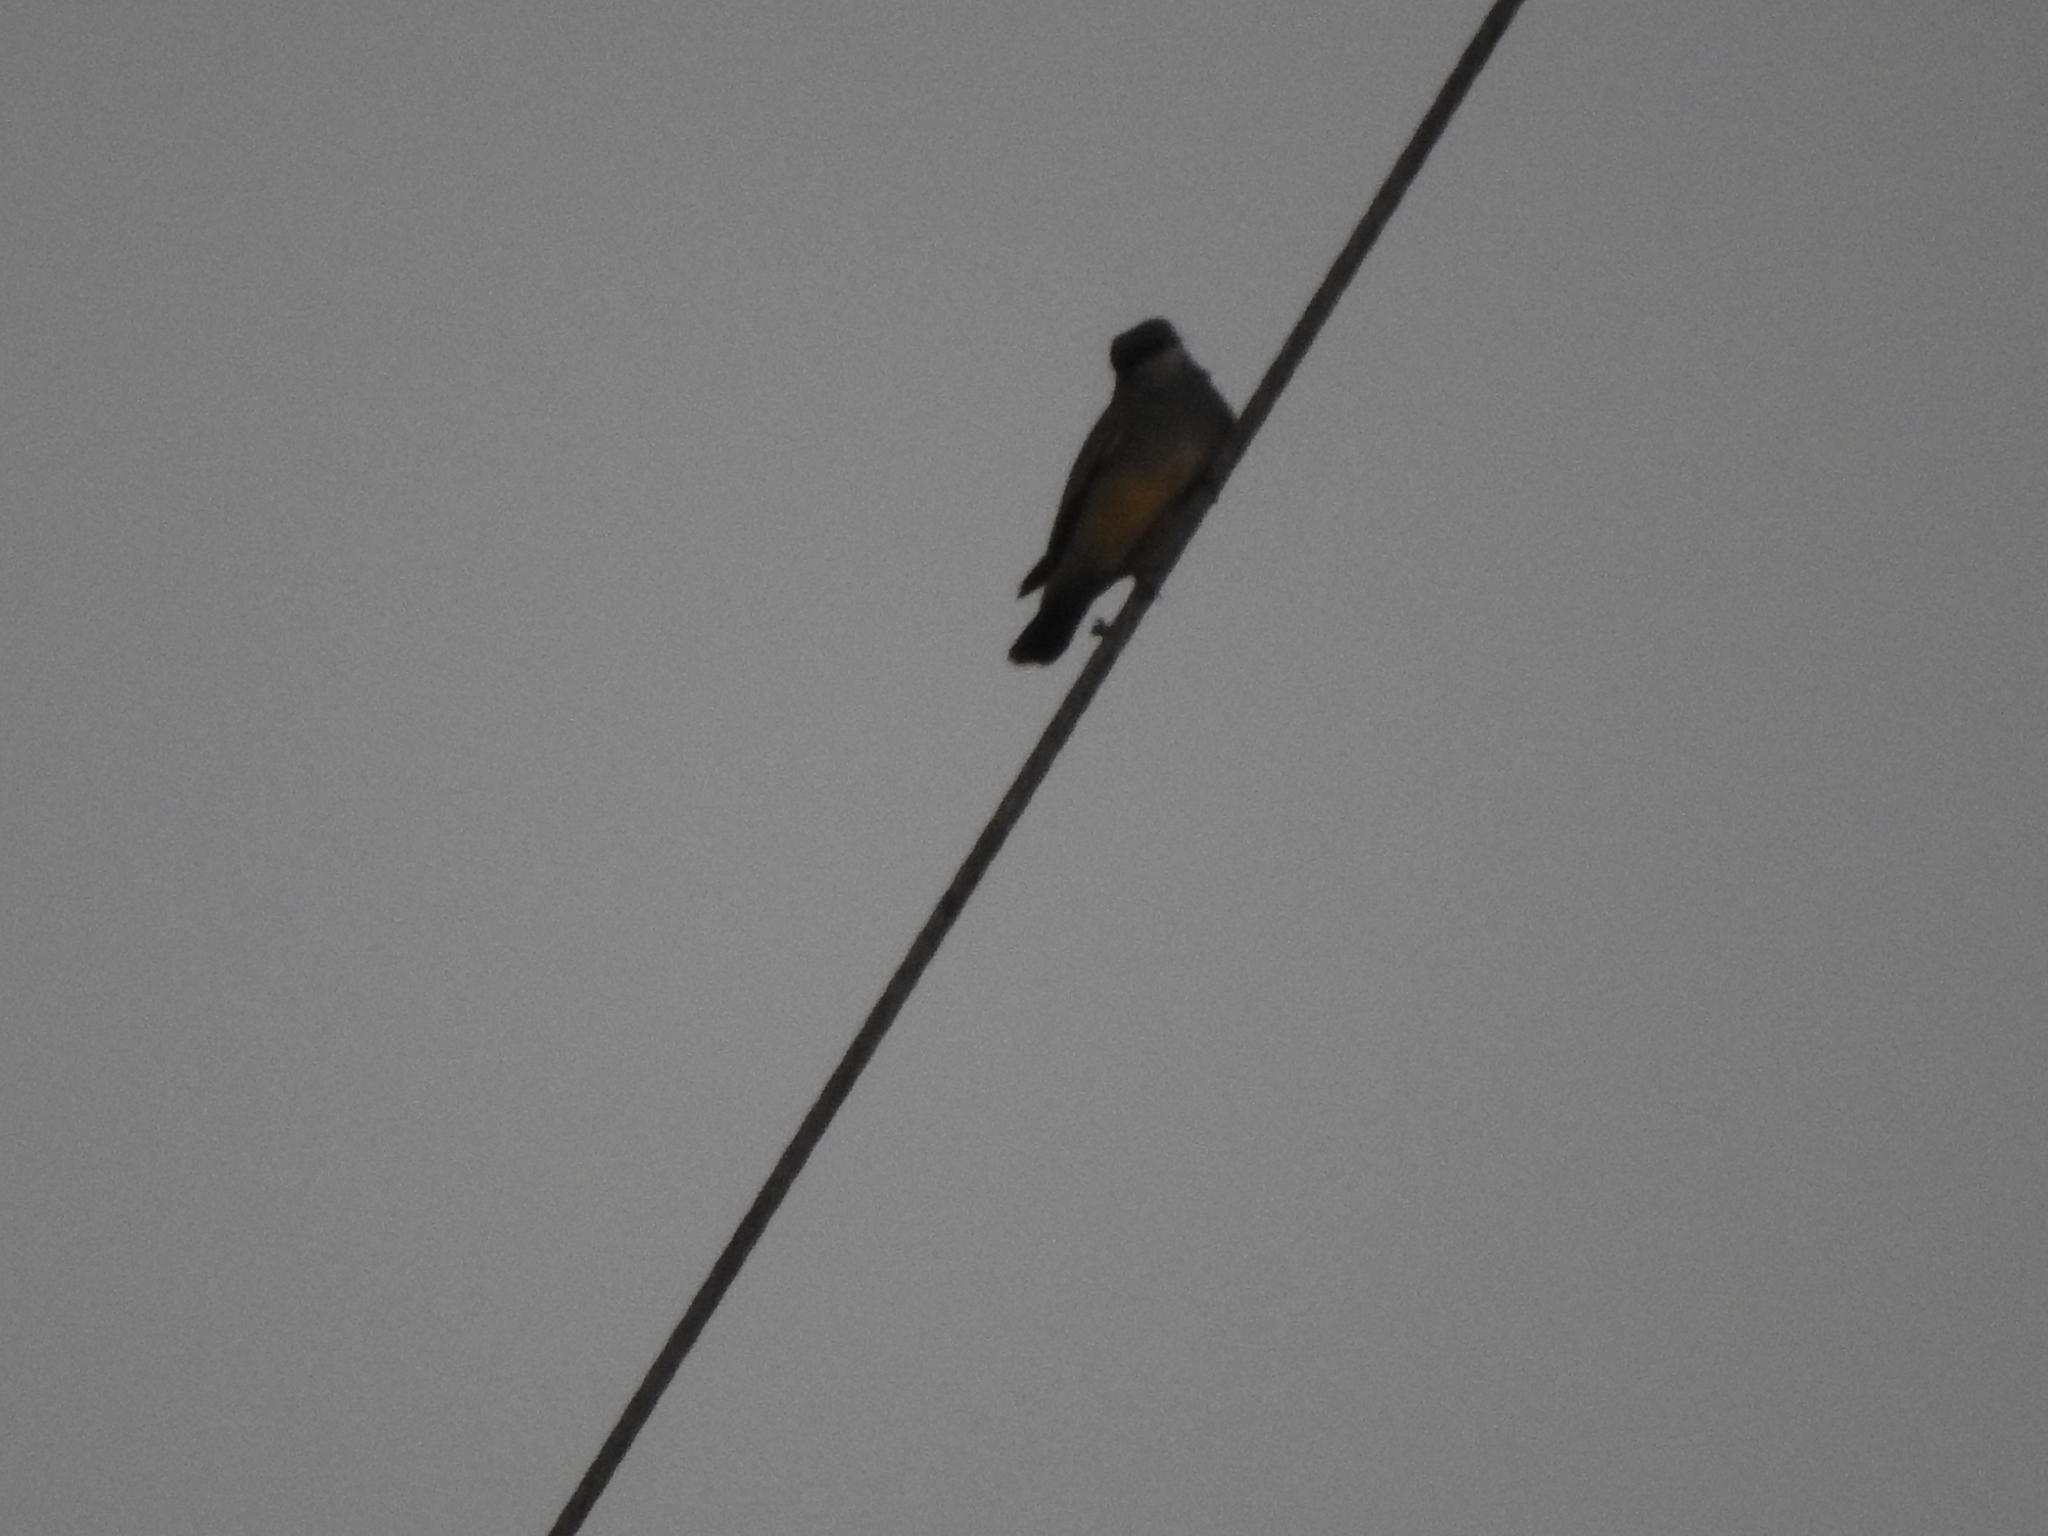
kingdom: Animalia
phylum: Chordata
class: Aves
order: Passeriformes
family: Tyrannidae
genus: Tyrannus
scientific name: Tyrannus vociferans
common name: Cassin's kingbird
